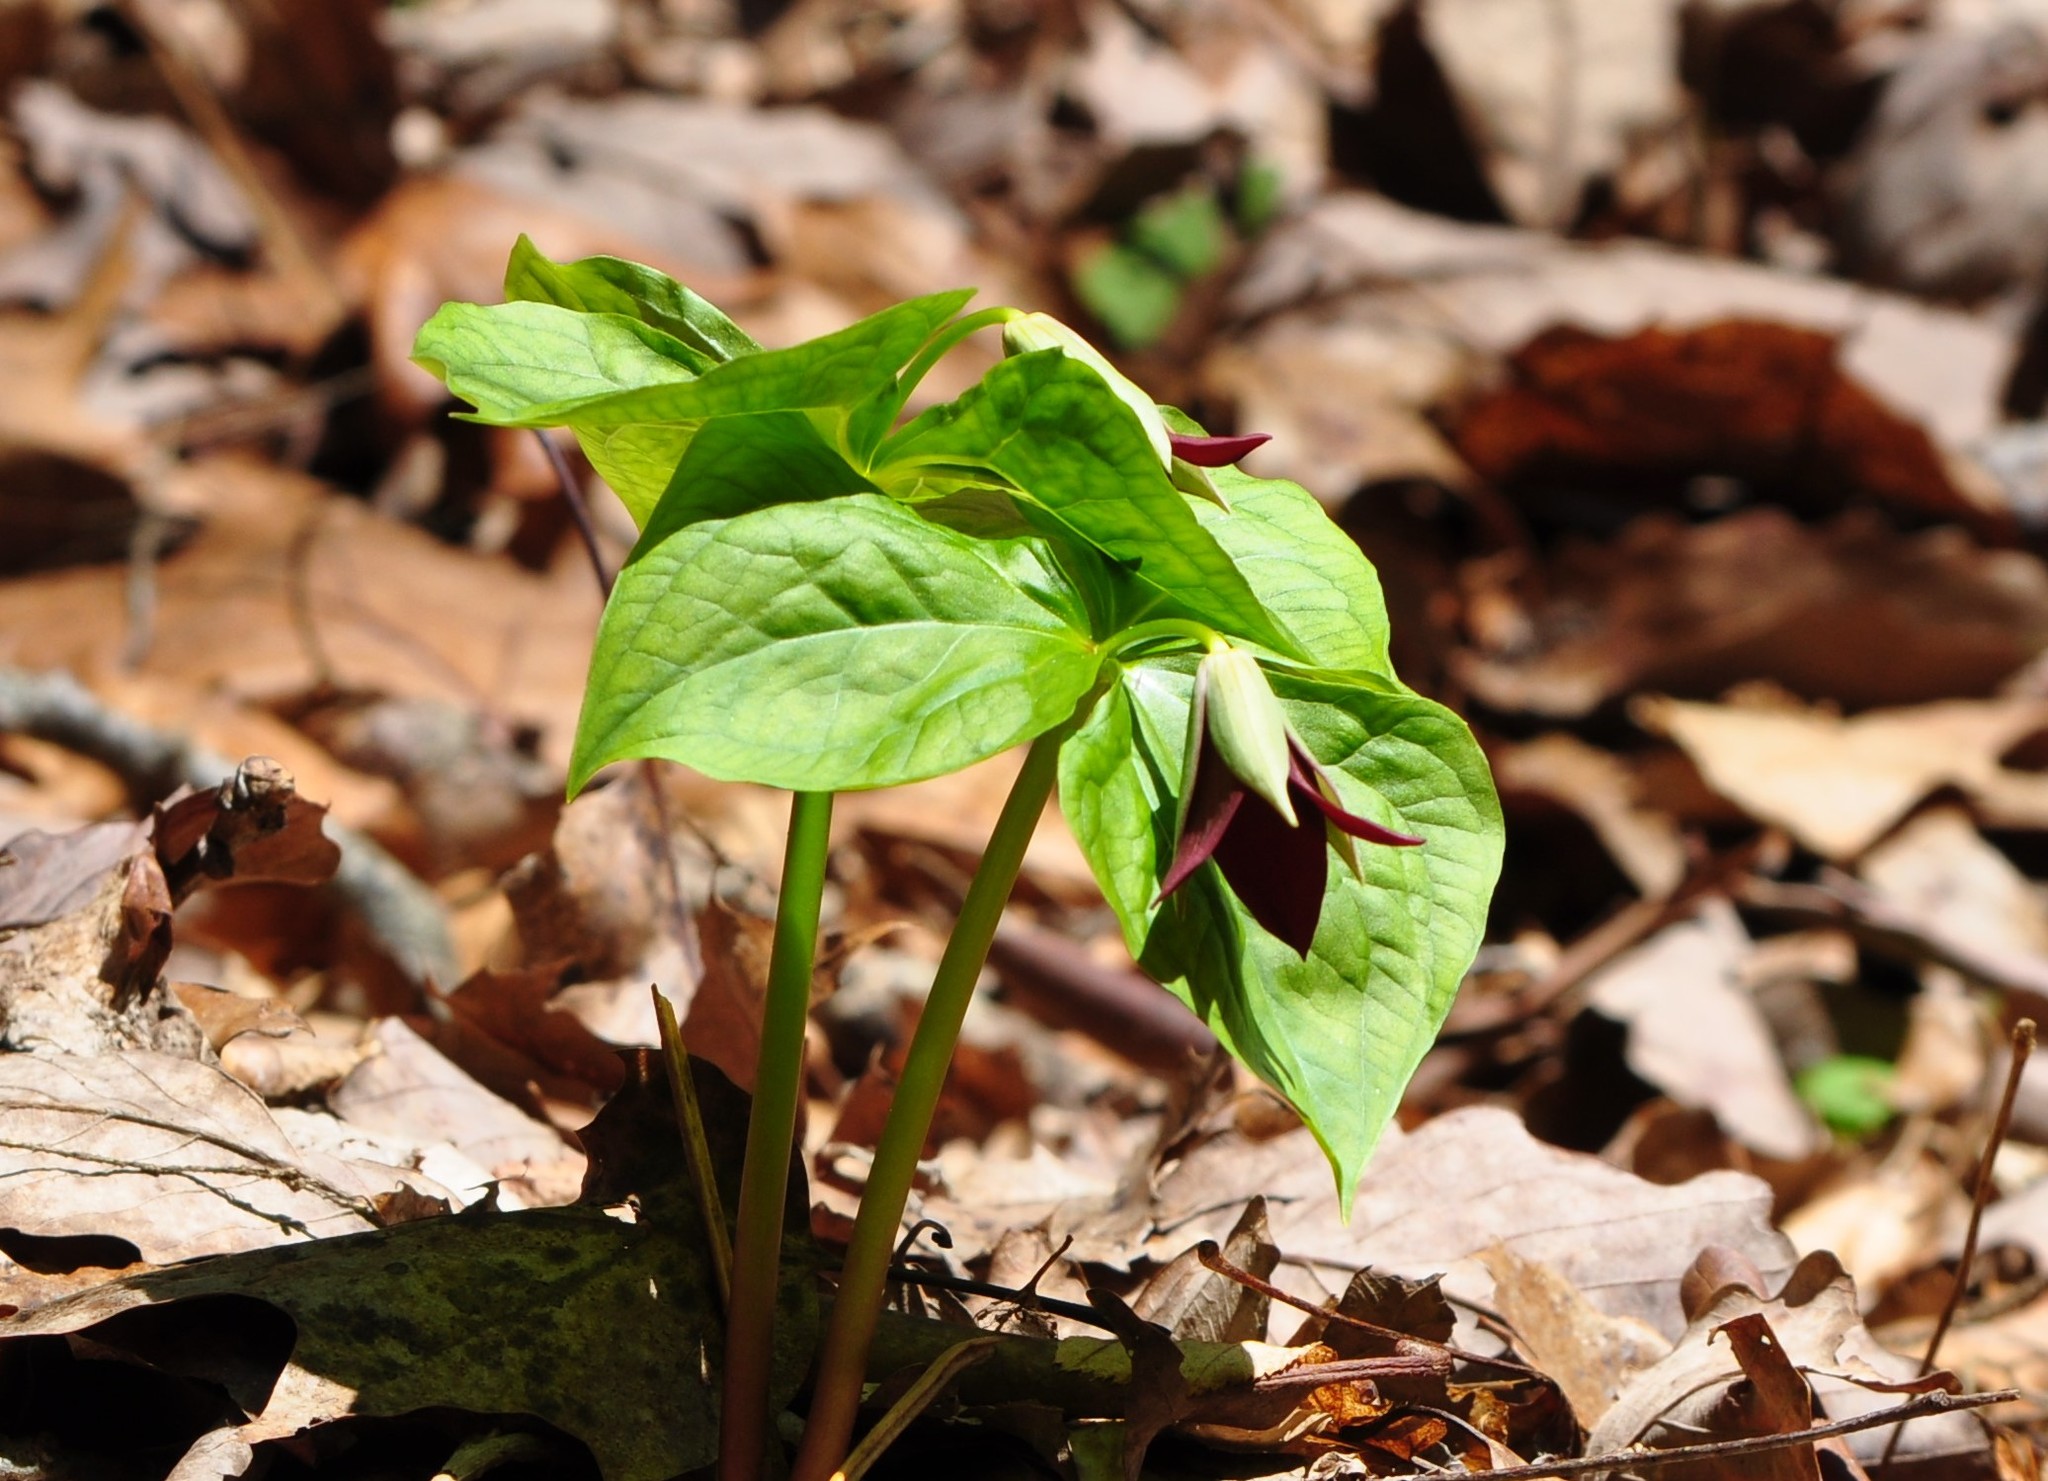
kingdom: Plantae
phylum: Tracheophyta
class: Liliopsida
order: Liliales
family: Melanthiaceae
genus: Trillium
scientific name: Trillium erectum
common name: Purple trillium
